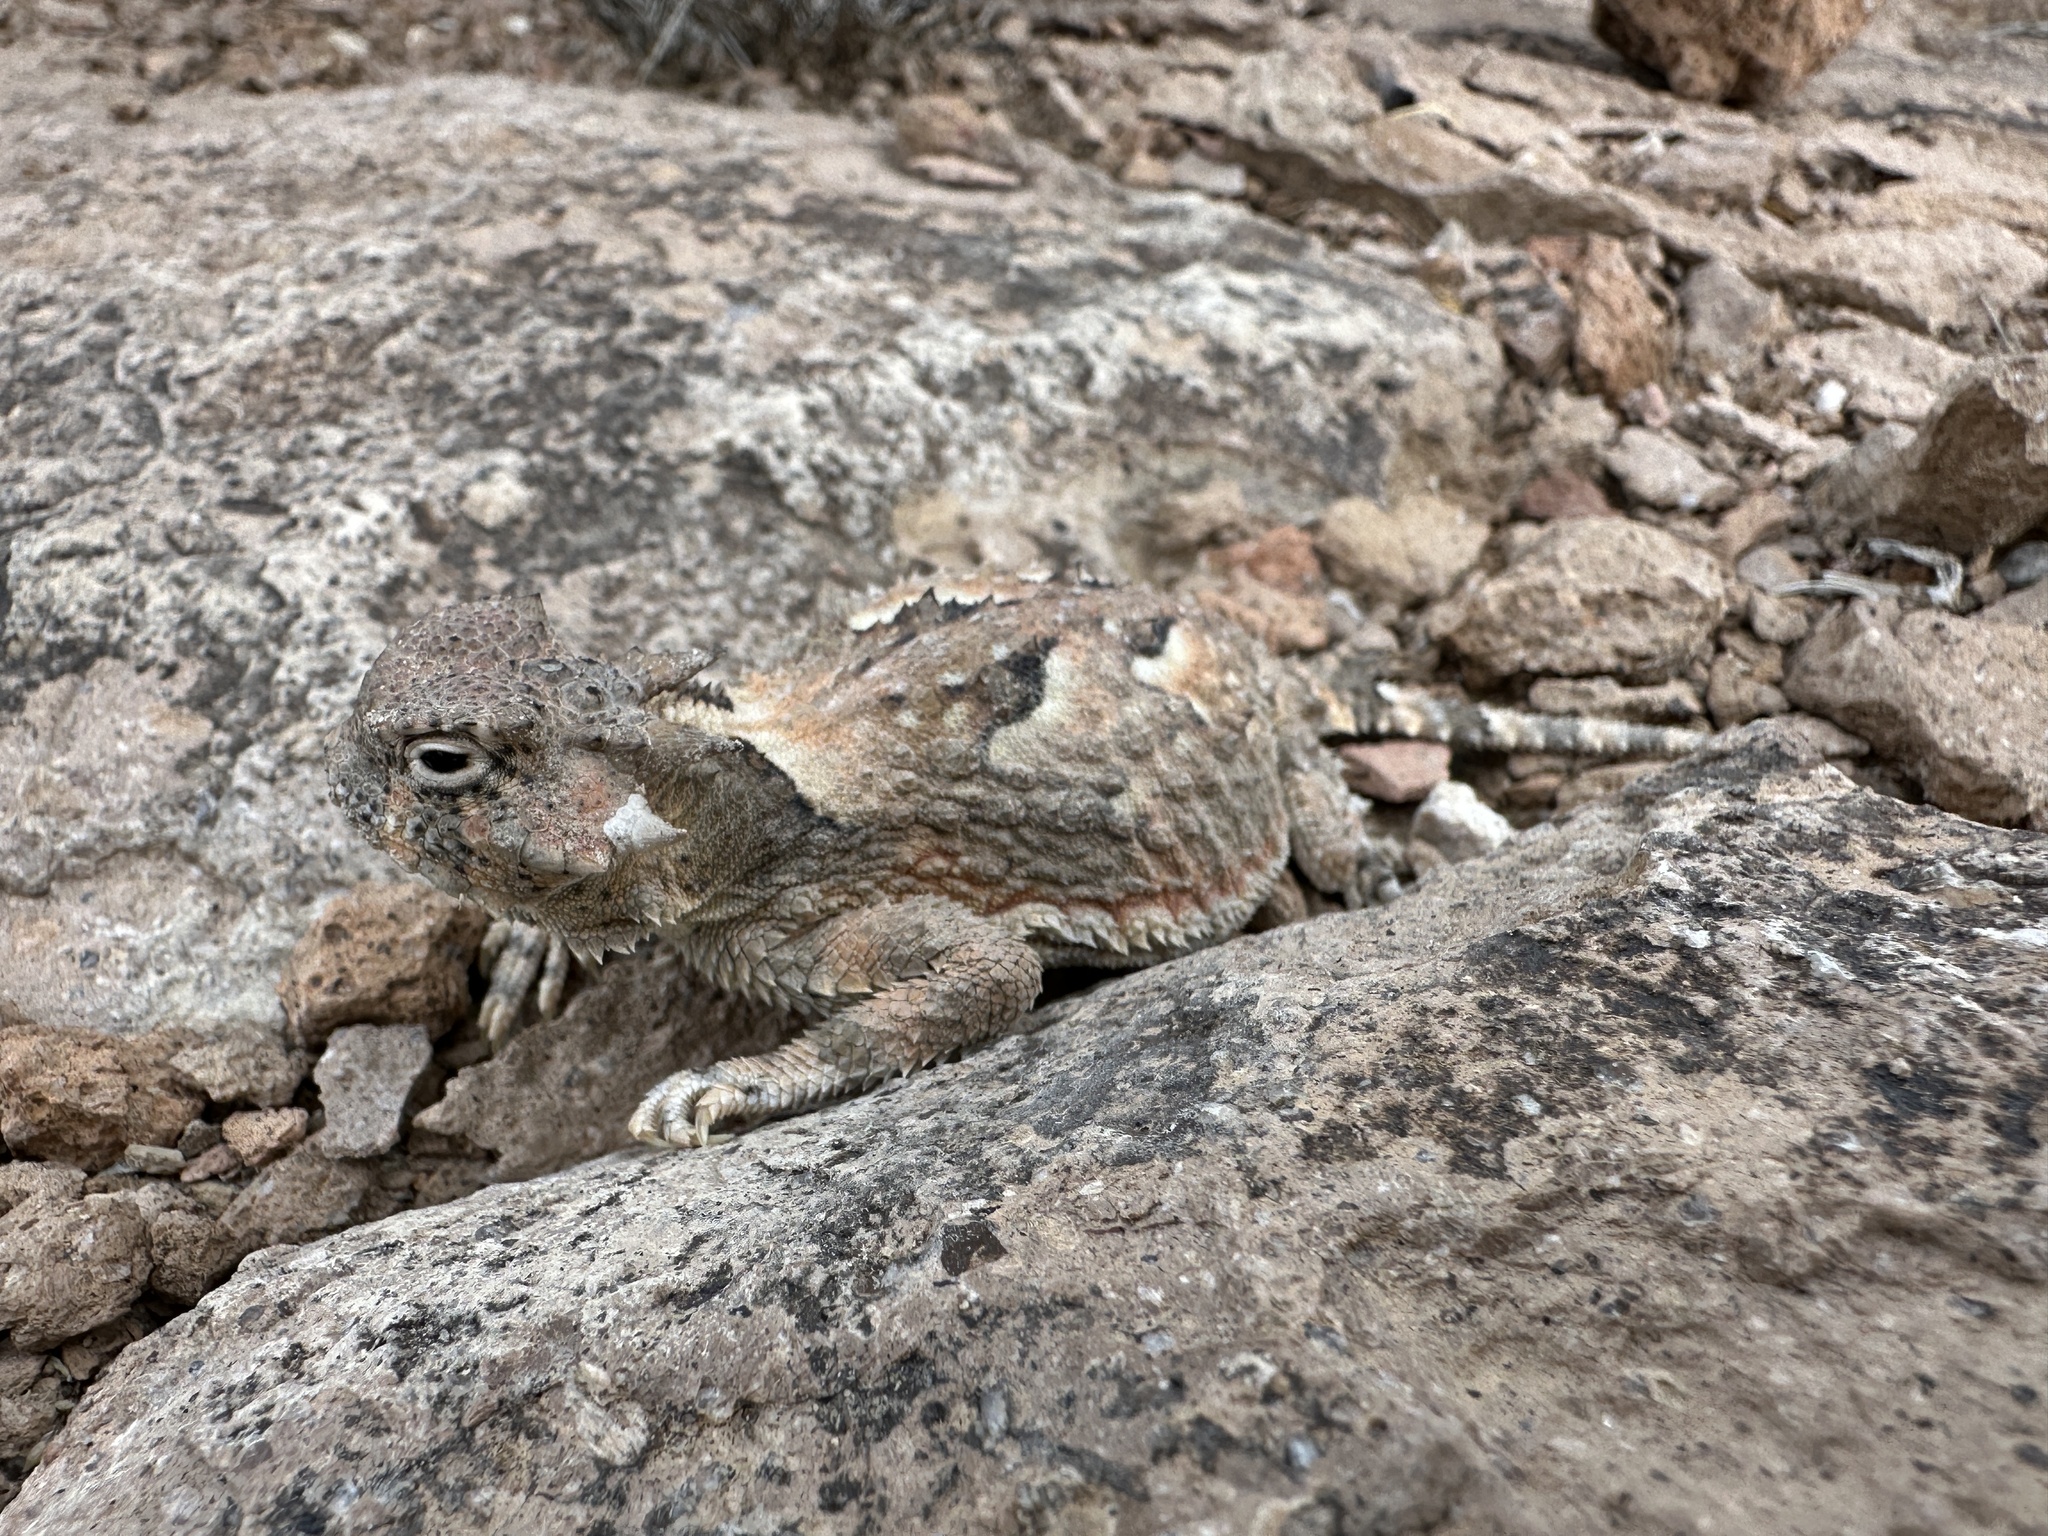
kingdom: Animalia
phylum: Chordata
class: Squamata
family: Phrynosomatidae
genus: Phrynosoma
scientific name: Phrynosoma platyrhinos
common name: Desert horned lizard
